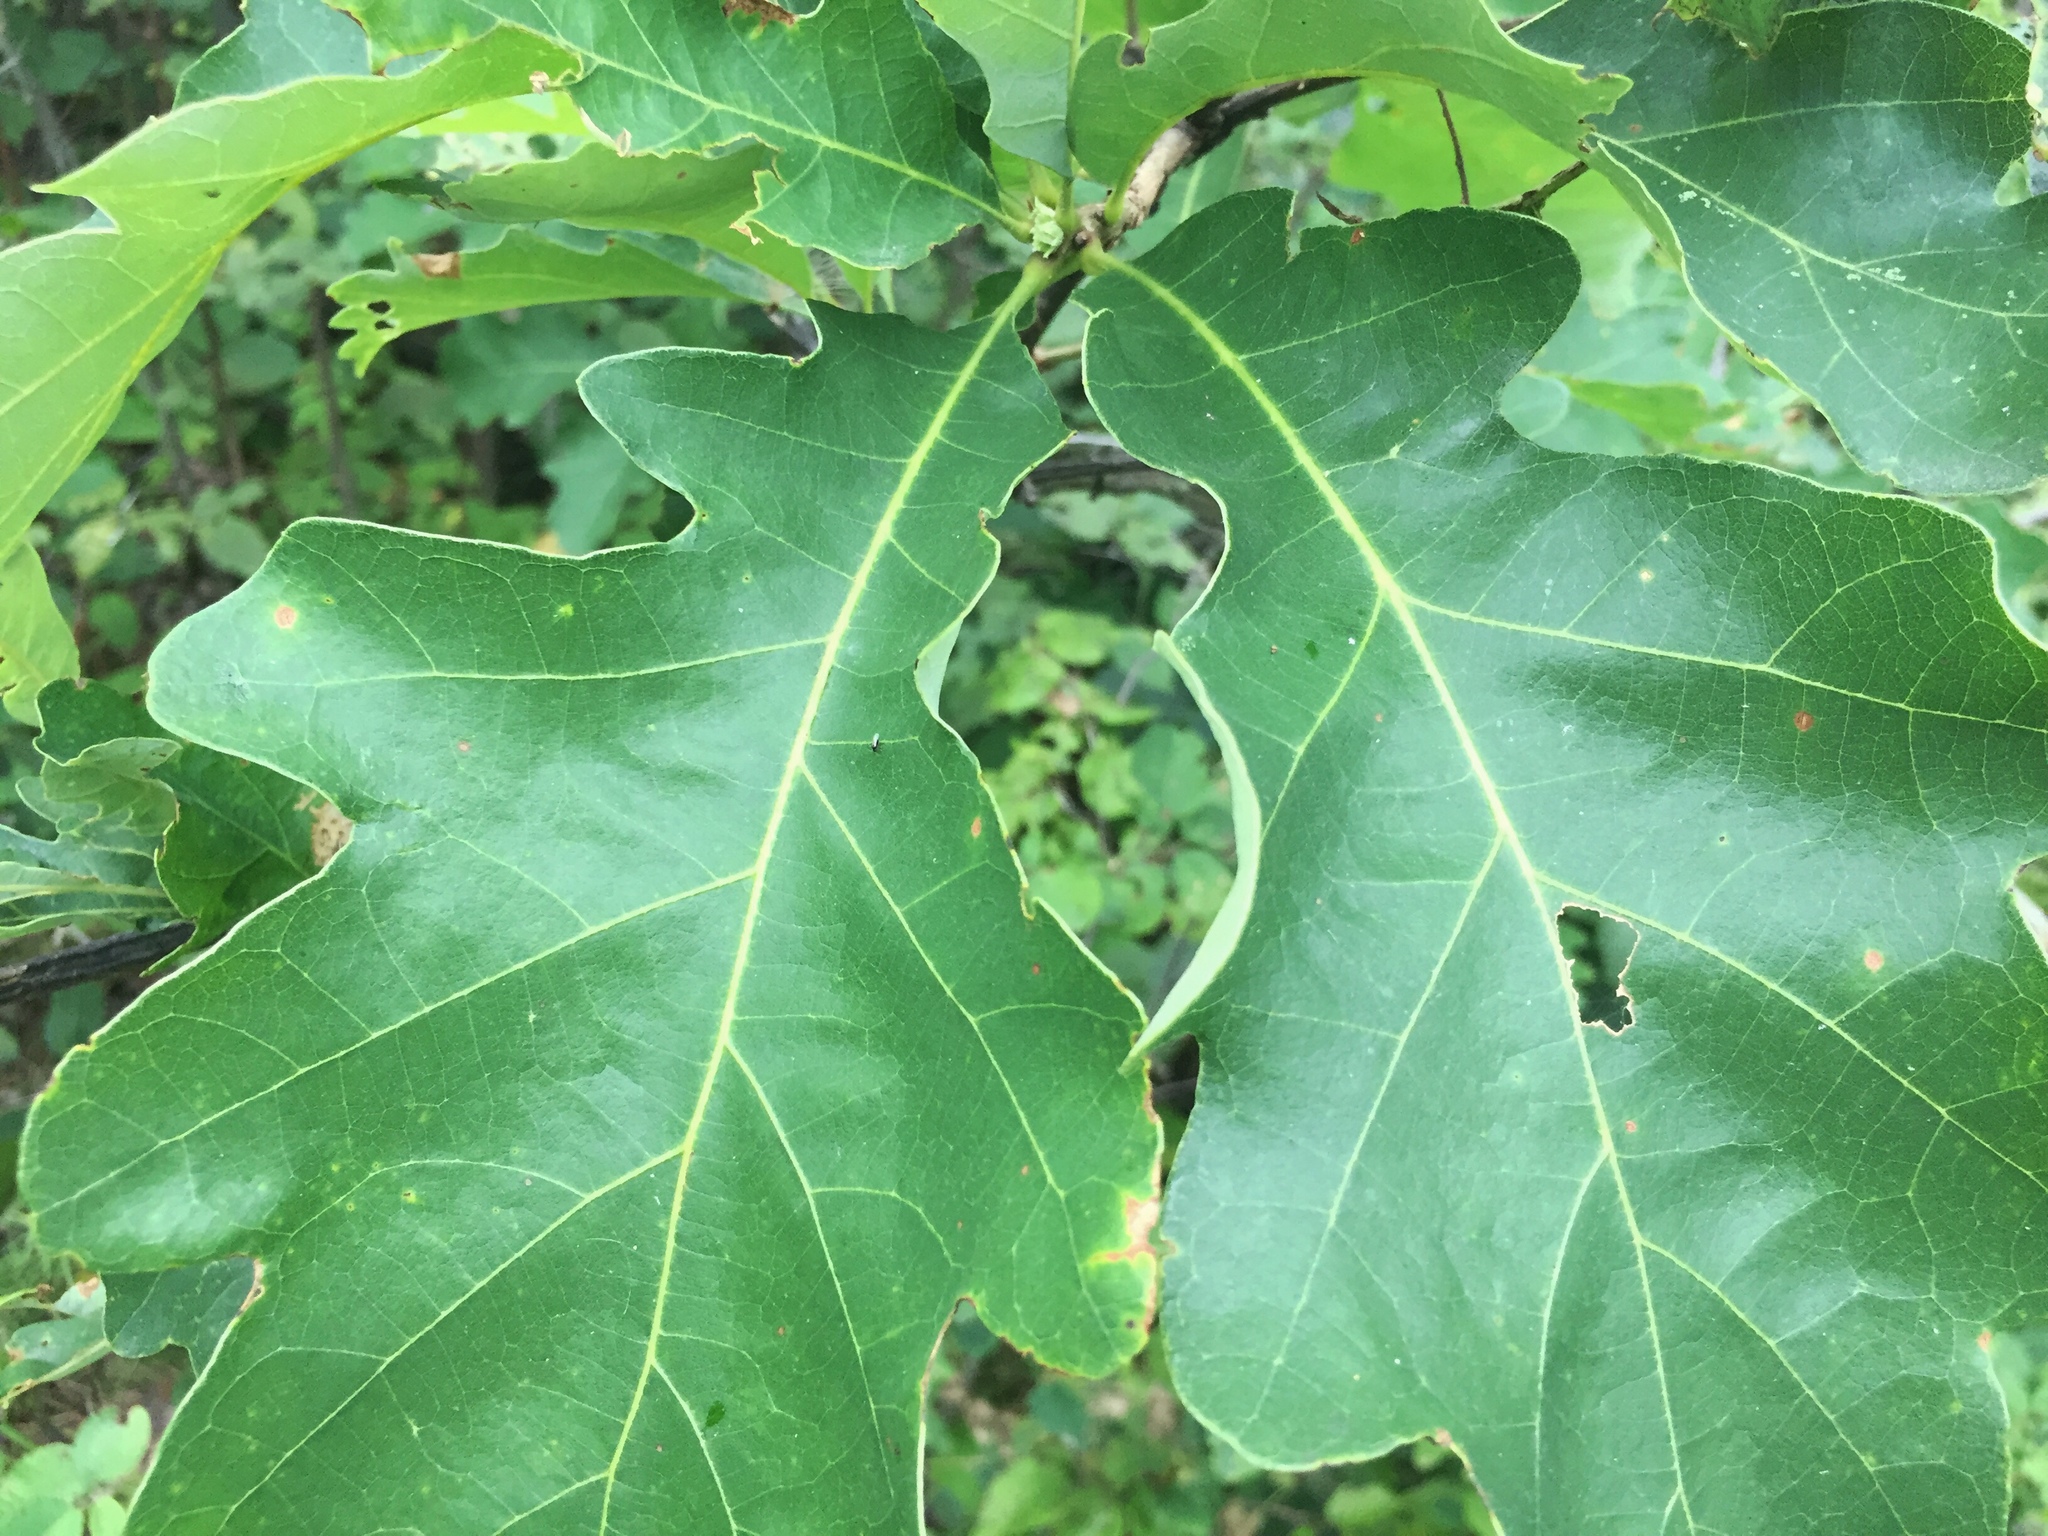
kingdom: Plantae
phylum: Tracheophyta
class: Magnoliopsida
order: Fagales
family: Fagaceae
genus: Quercus
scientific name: Quercus macrocarpa
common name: Bur oak
